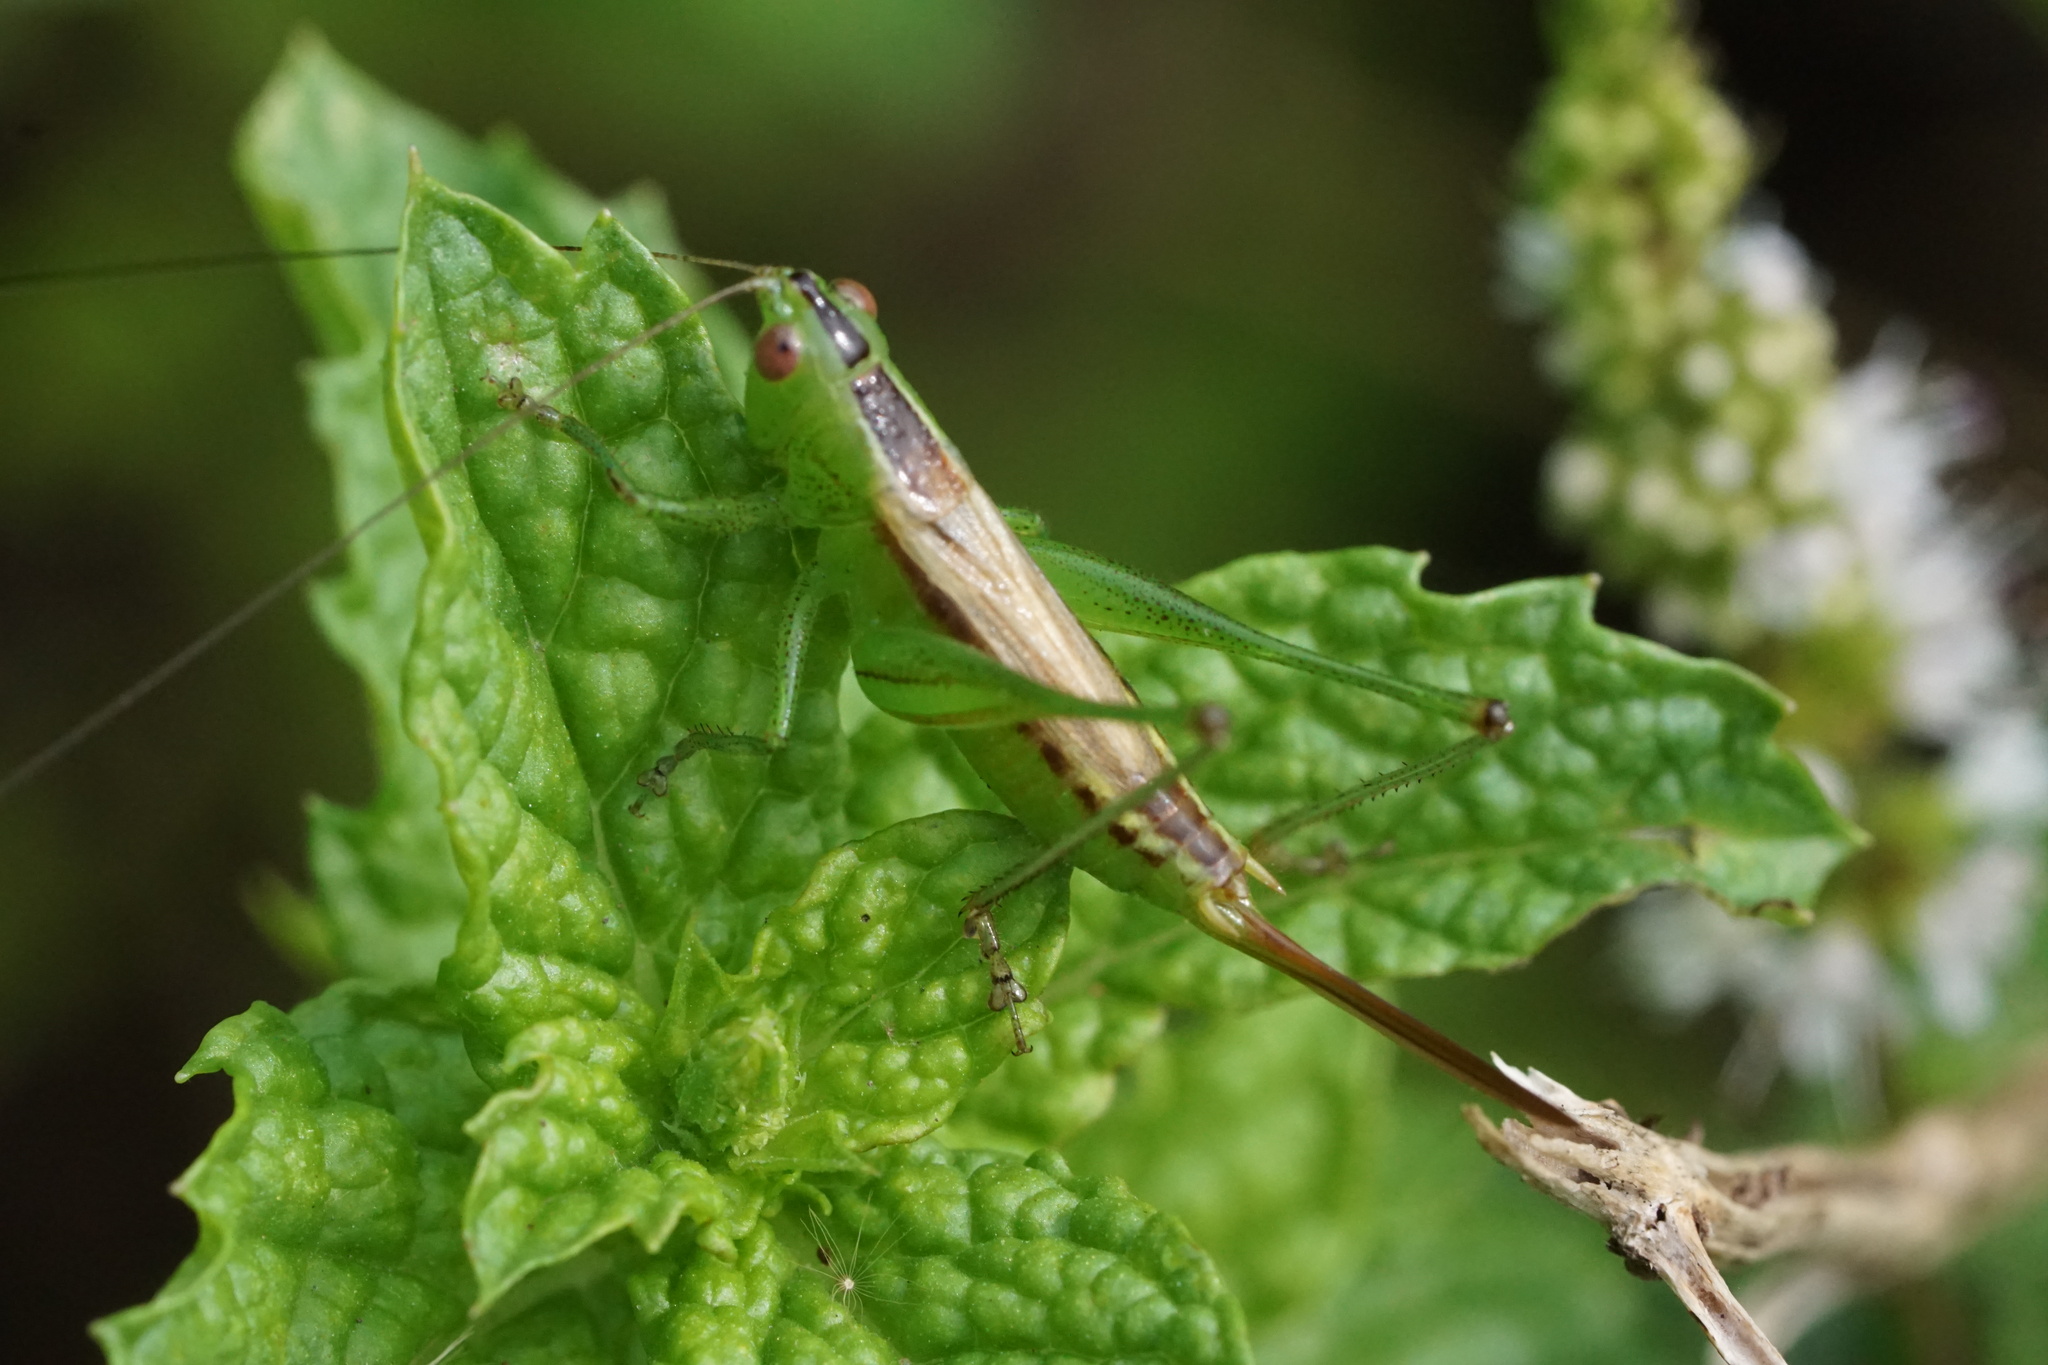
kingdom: Animalia
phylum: Arthropoda
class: Insecta
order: Orthoptera
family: Tettigoniidae
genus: Conocephalus
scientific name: Conocephalus brevipennis
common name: Short-winged meadow katydid
